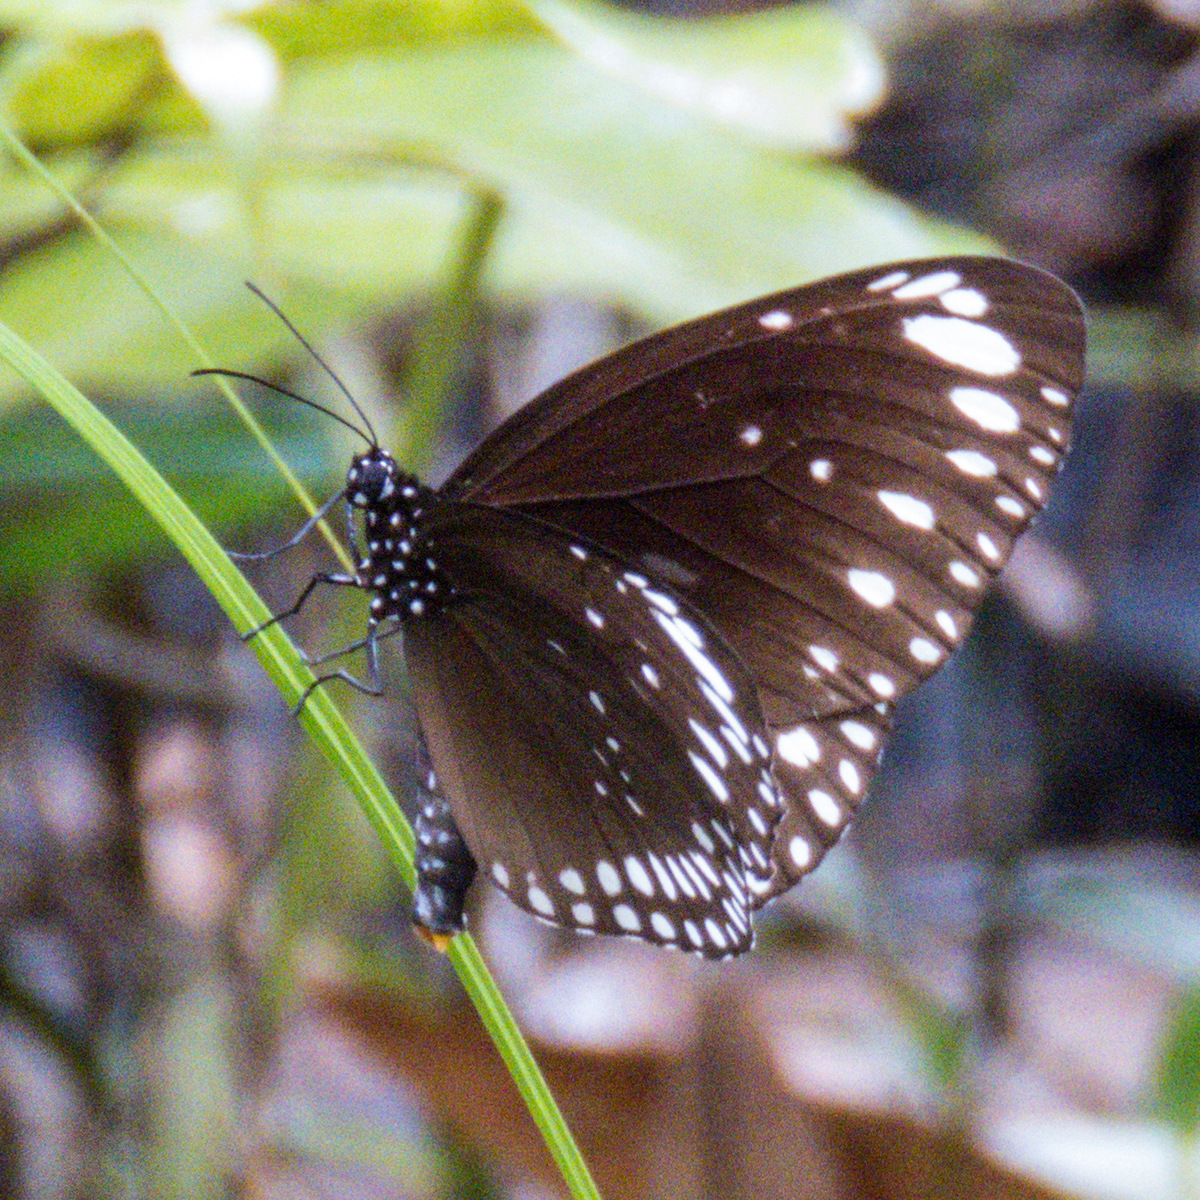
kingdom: Animalia
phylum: Arthropoda
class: Insecta
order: Lepidoptera
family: Nymphalidae
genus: Euploea
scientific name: Euploea crameri
